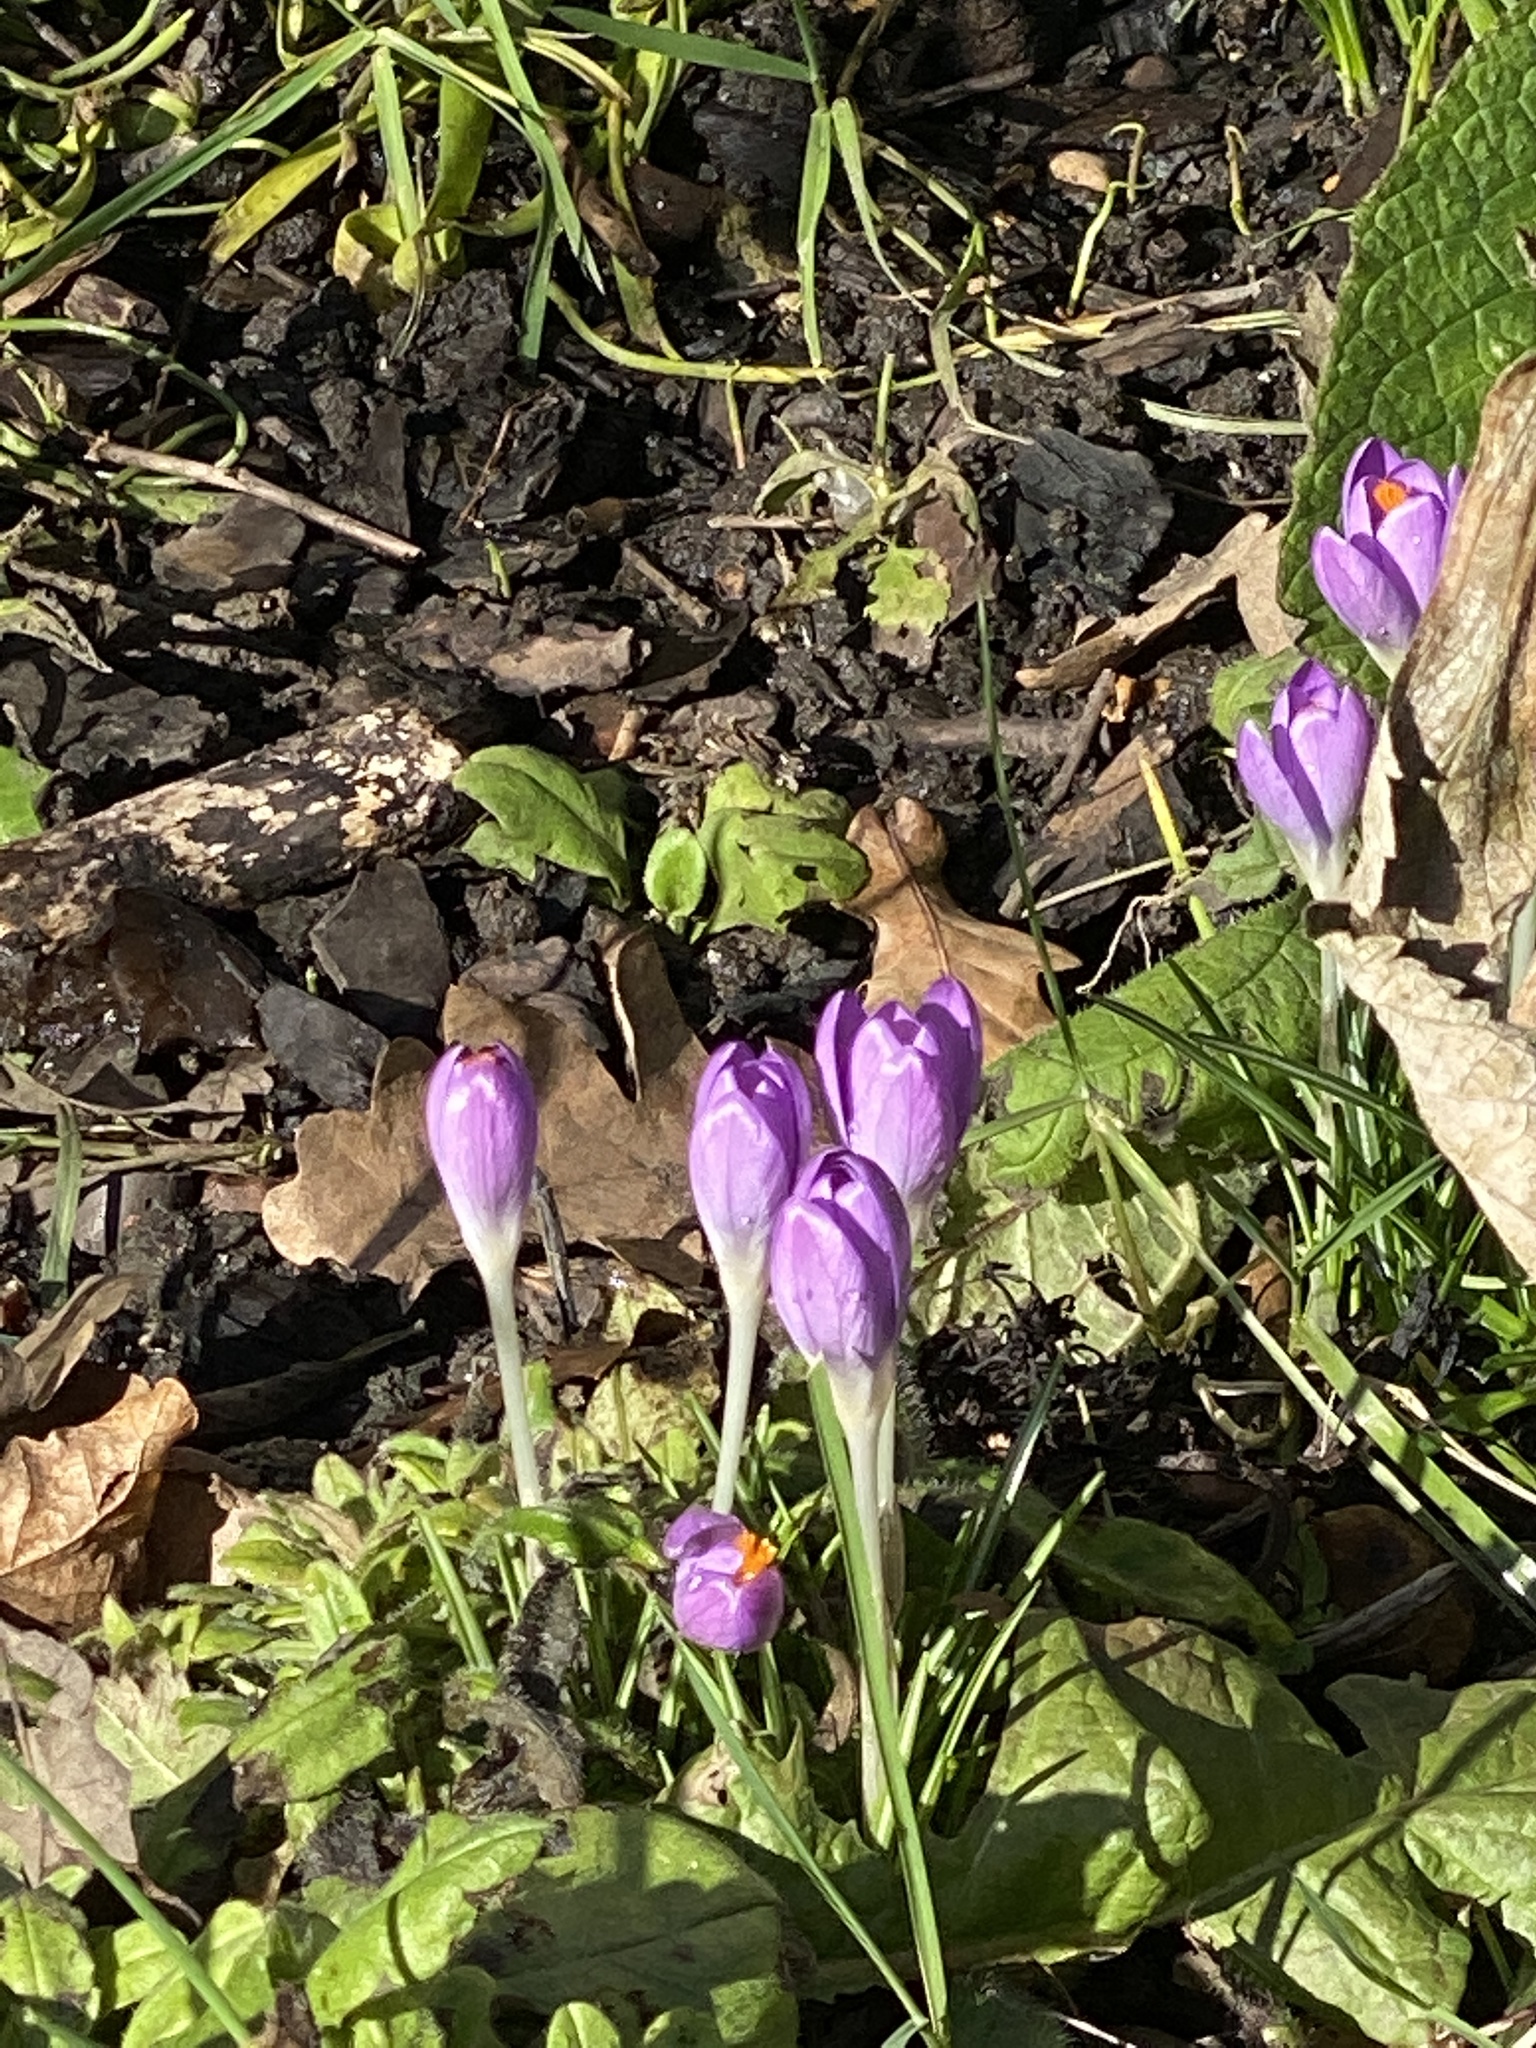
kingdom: Plantae
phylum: Tracheophyta
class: Liliopsida
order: Asparagales
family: Iridaceae
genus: Crocus
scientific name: Crocus tommasinianus
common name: Early crocus
